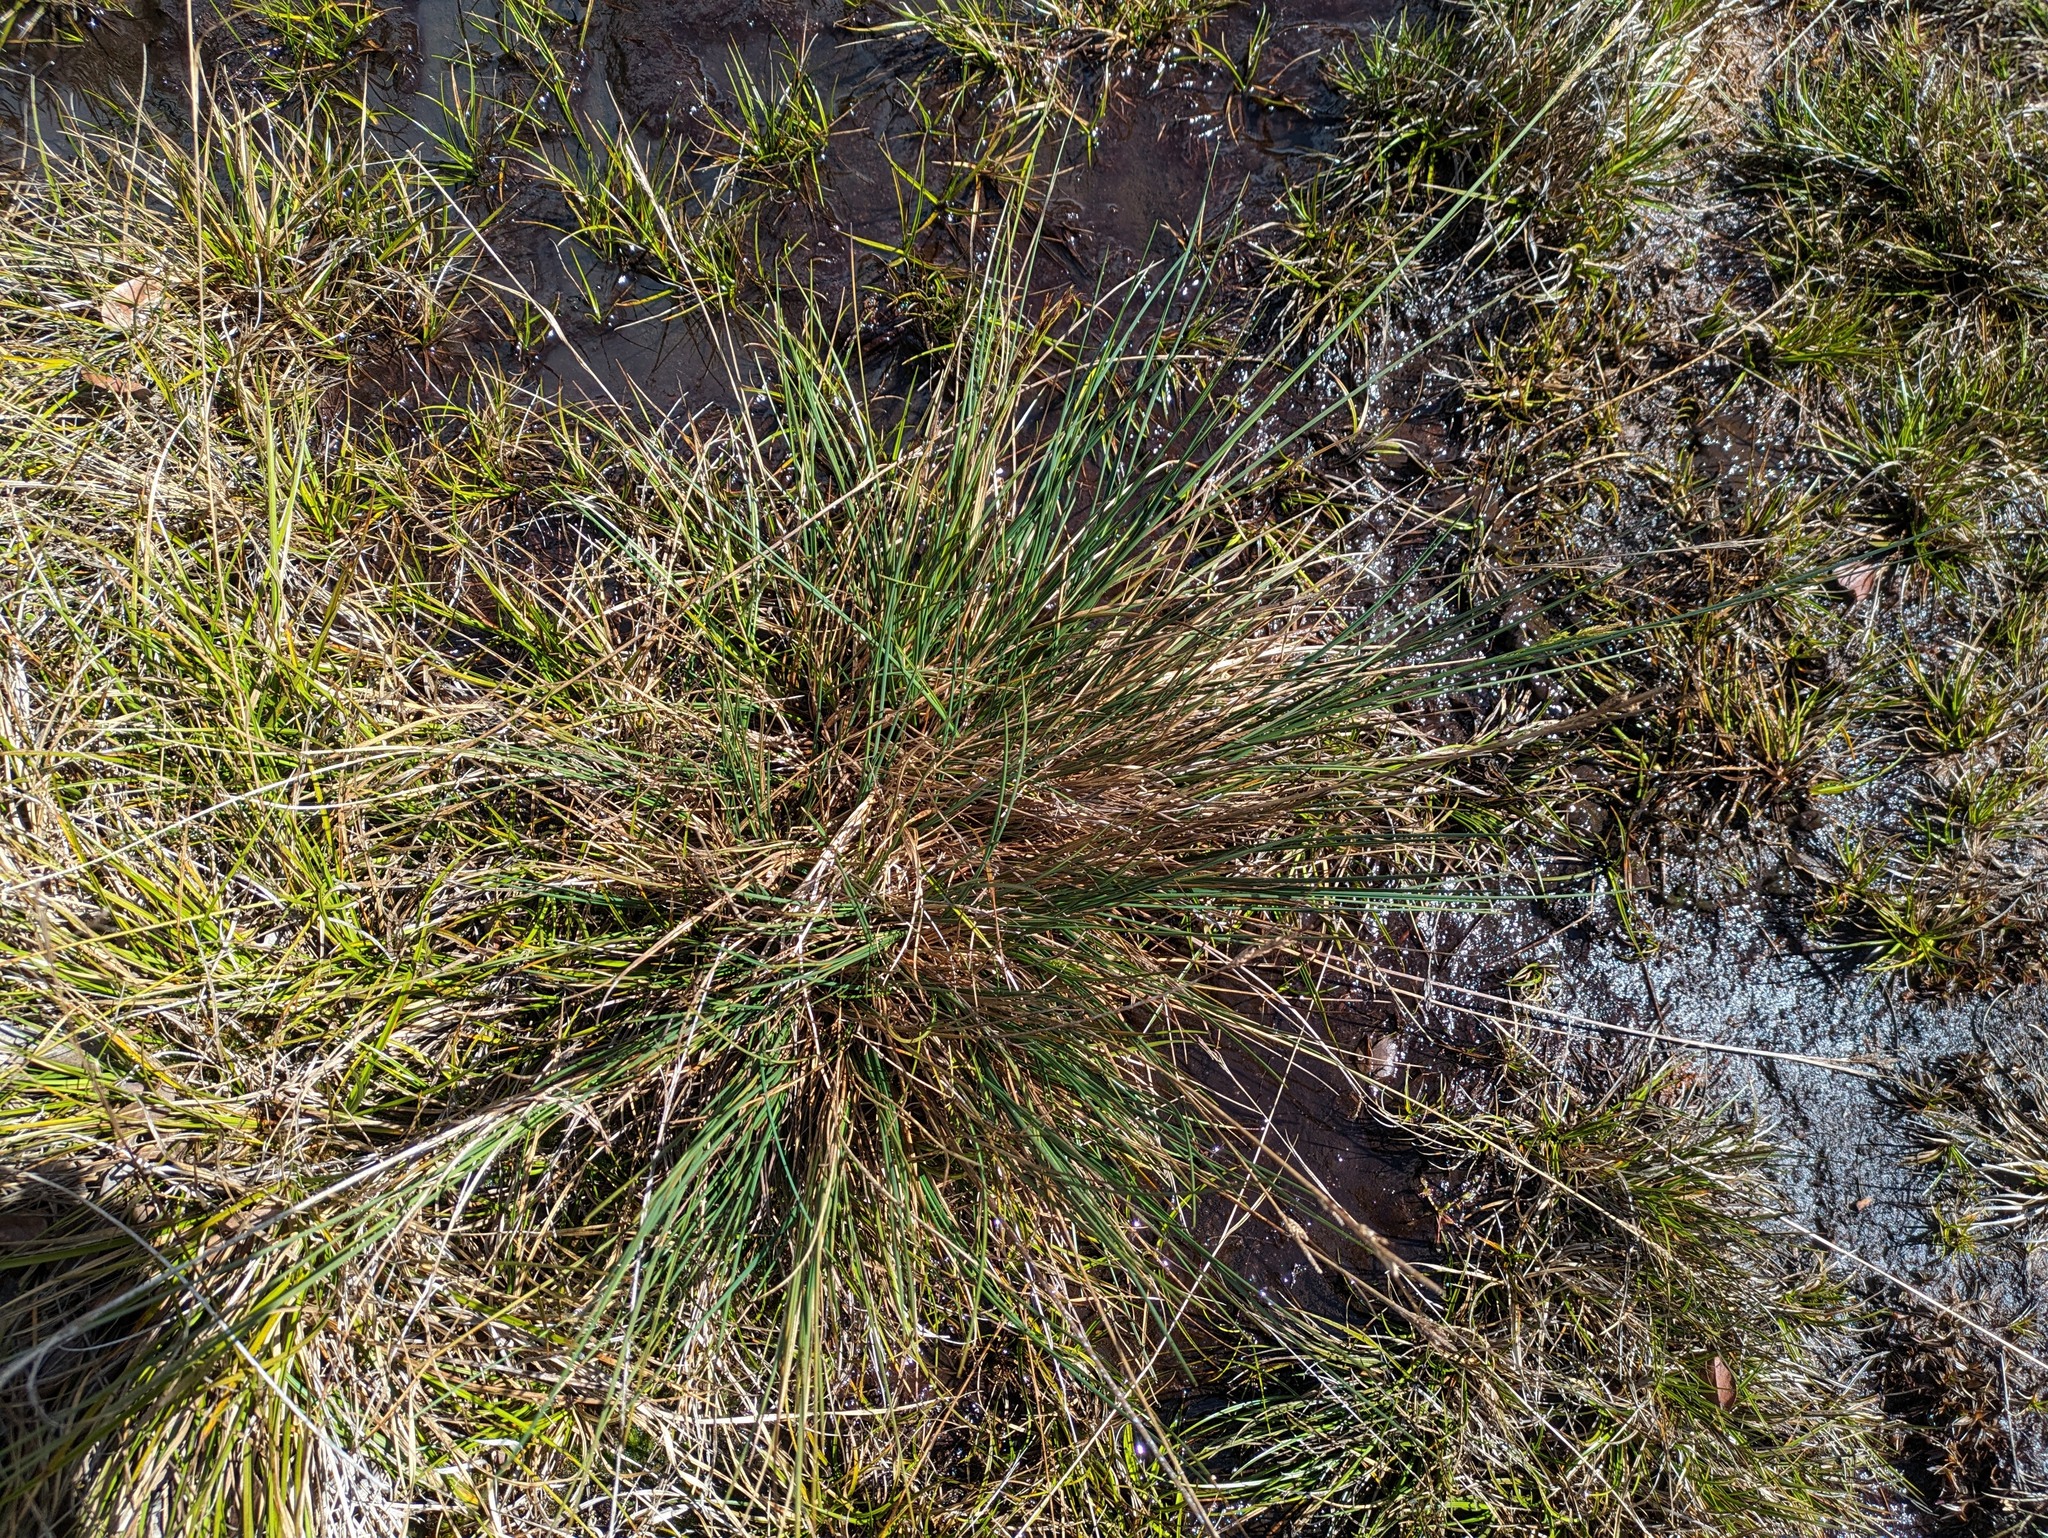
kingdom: Plantae
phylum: Tracheophyta
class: Liliopsida
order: Poales
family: Cyperaceae
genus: Carex
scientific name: Carex montis-eeka
